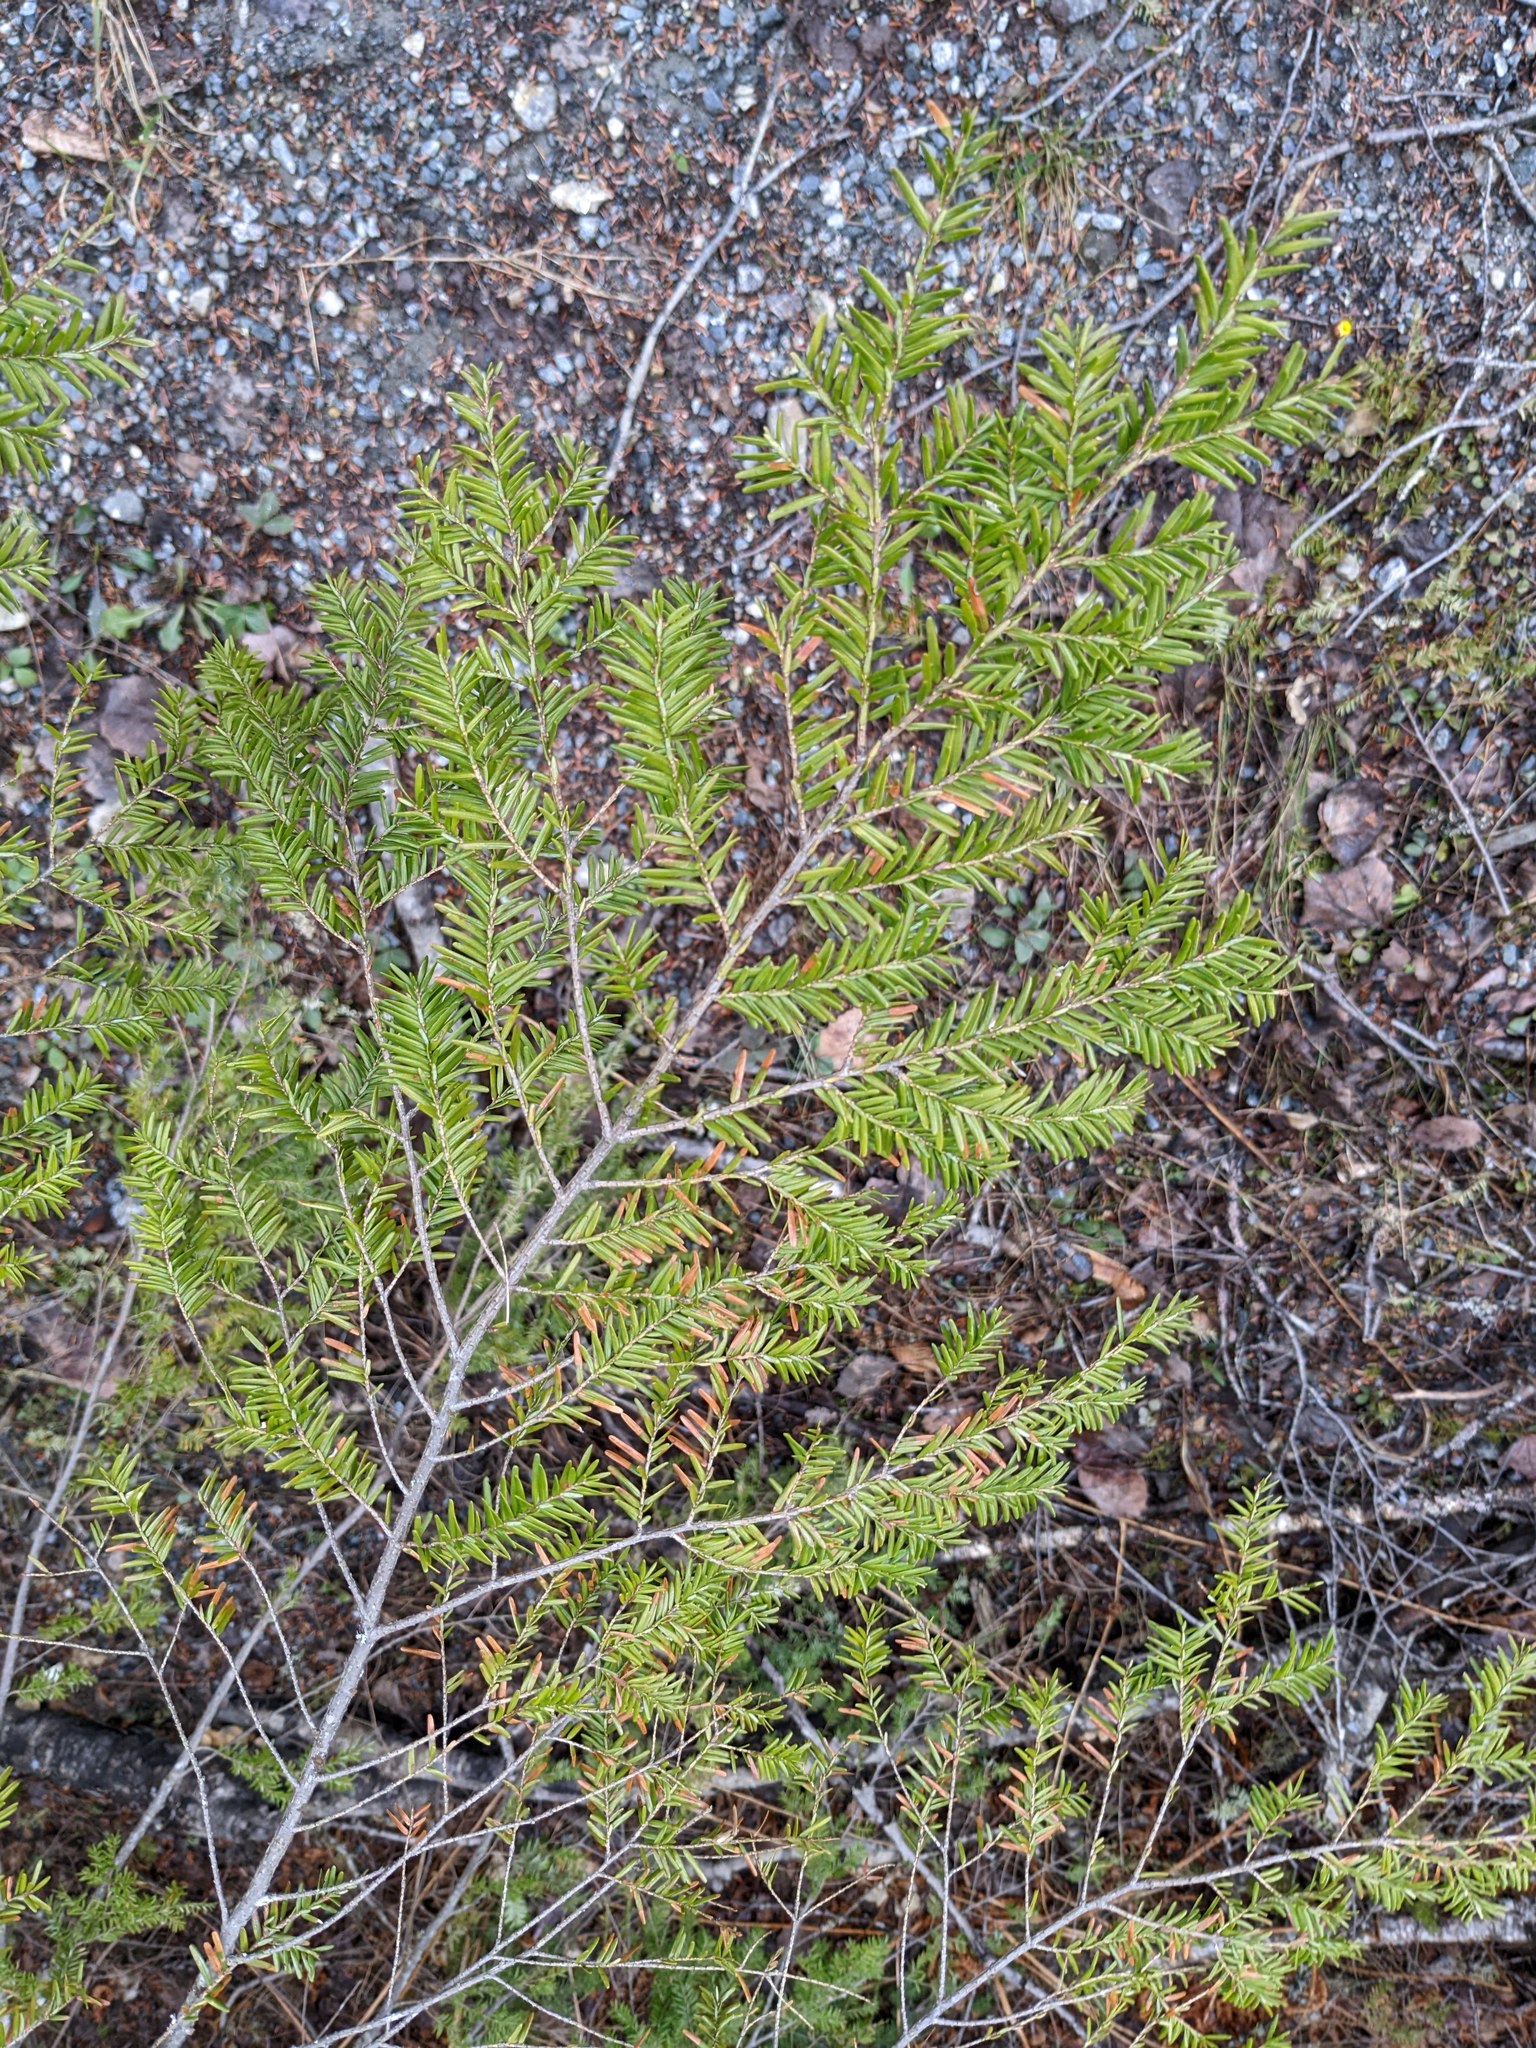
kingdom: Plantae
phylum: Tracheophyta
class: Pinopsida
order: Pinales
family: Pinaceae
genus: Tsuga
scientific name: Tsuga canadensis
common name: Eastern hemlock
